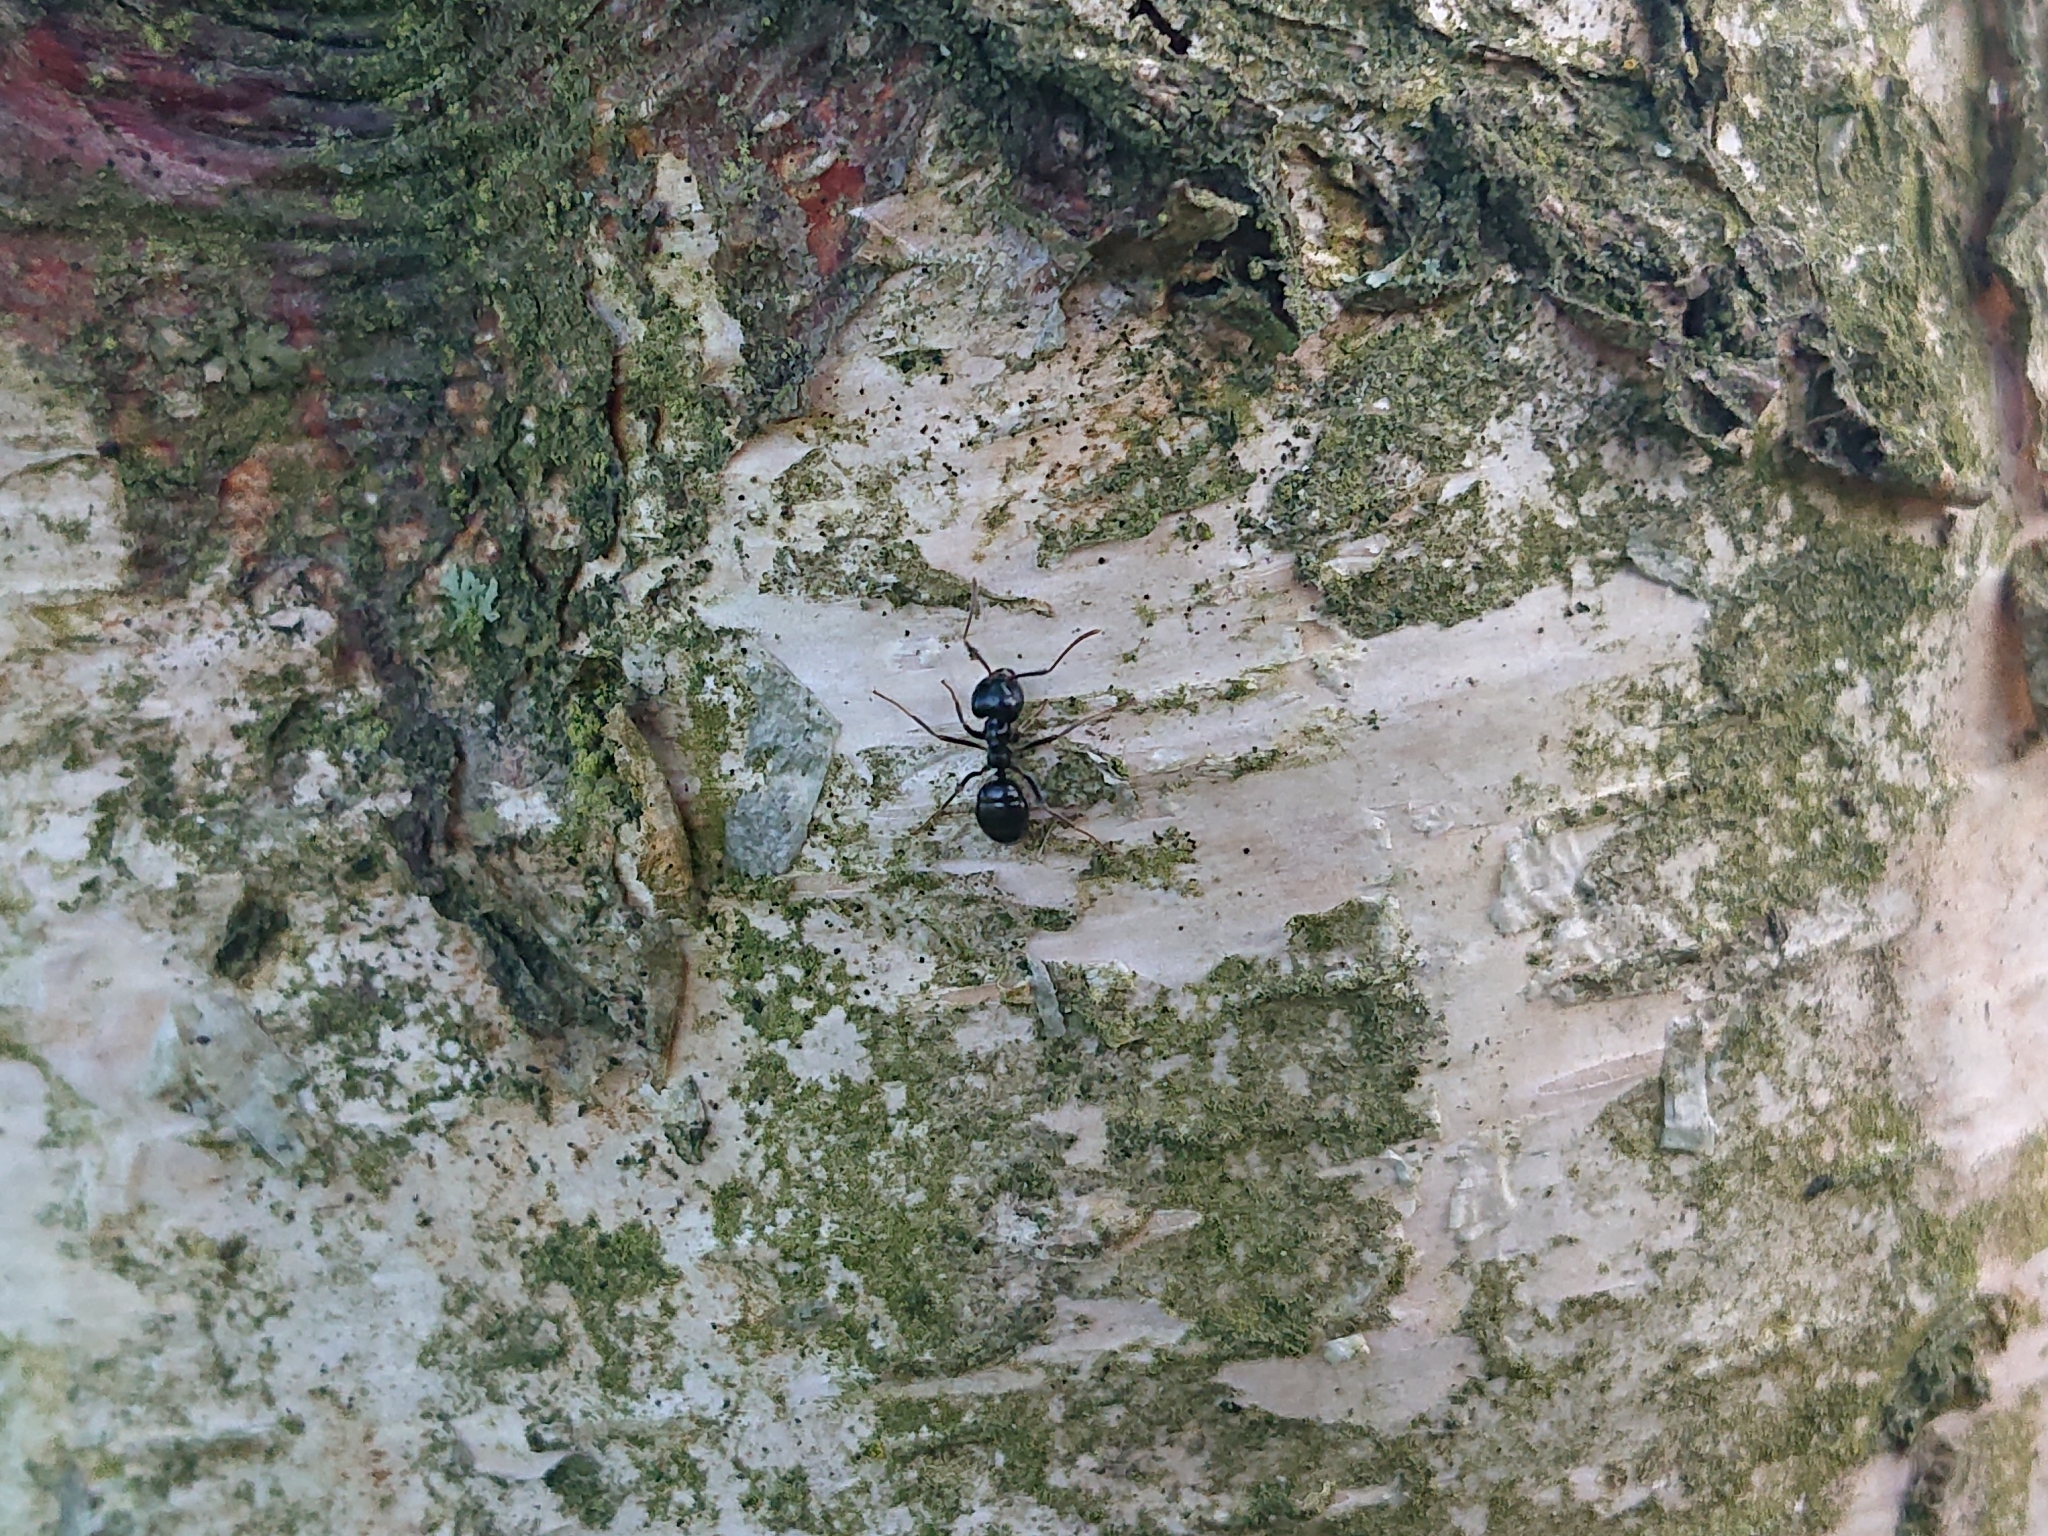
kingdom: Animalia
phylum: Arthropoda
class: Insecta
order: Hymenoptera
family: Formicidae
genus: Lasius
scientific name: Lasius fuliginosus
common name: Jet ant
